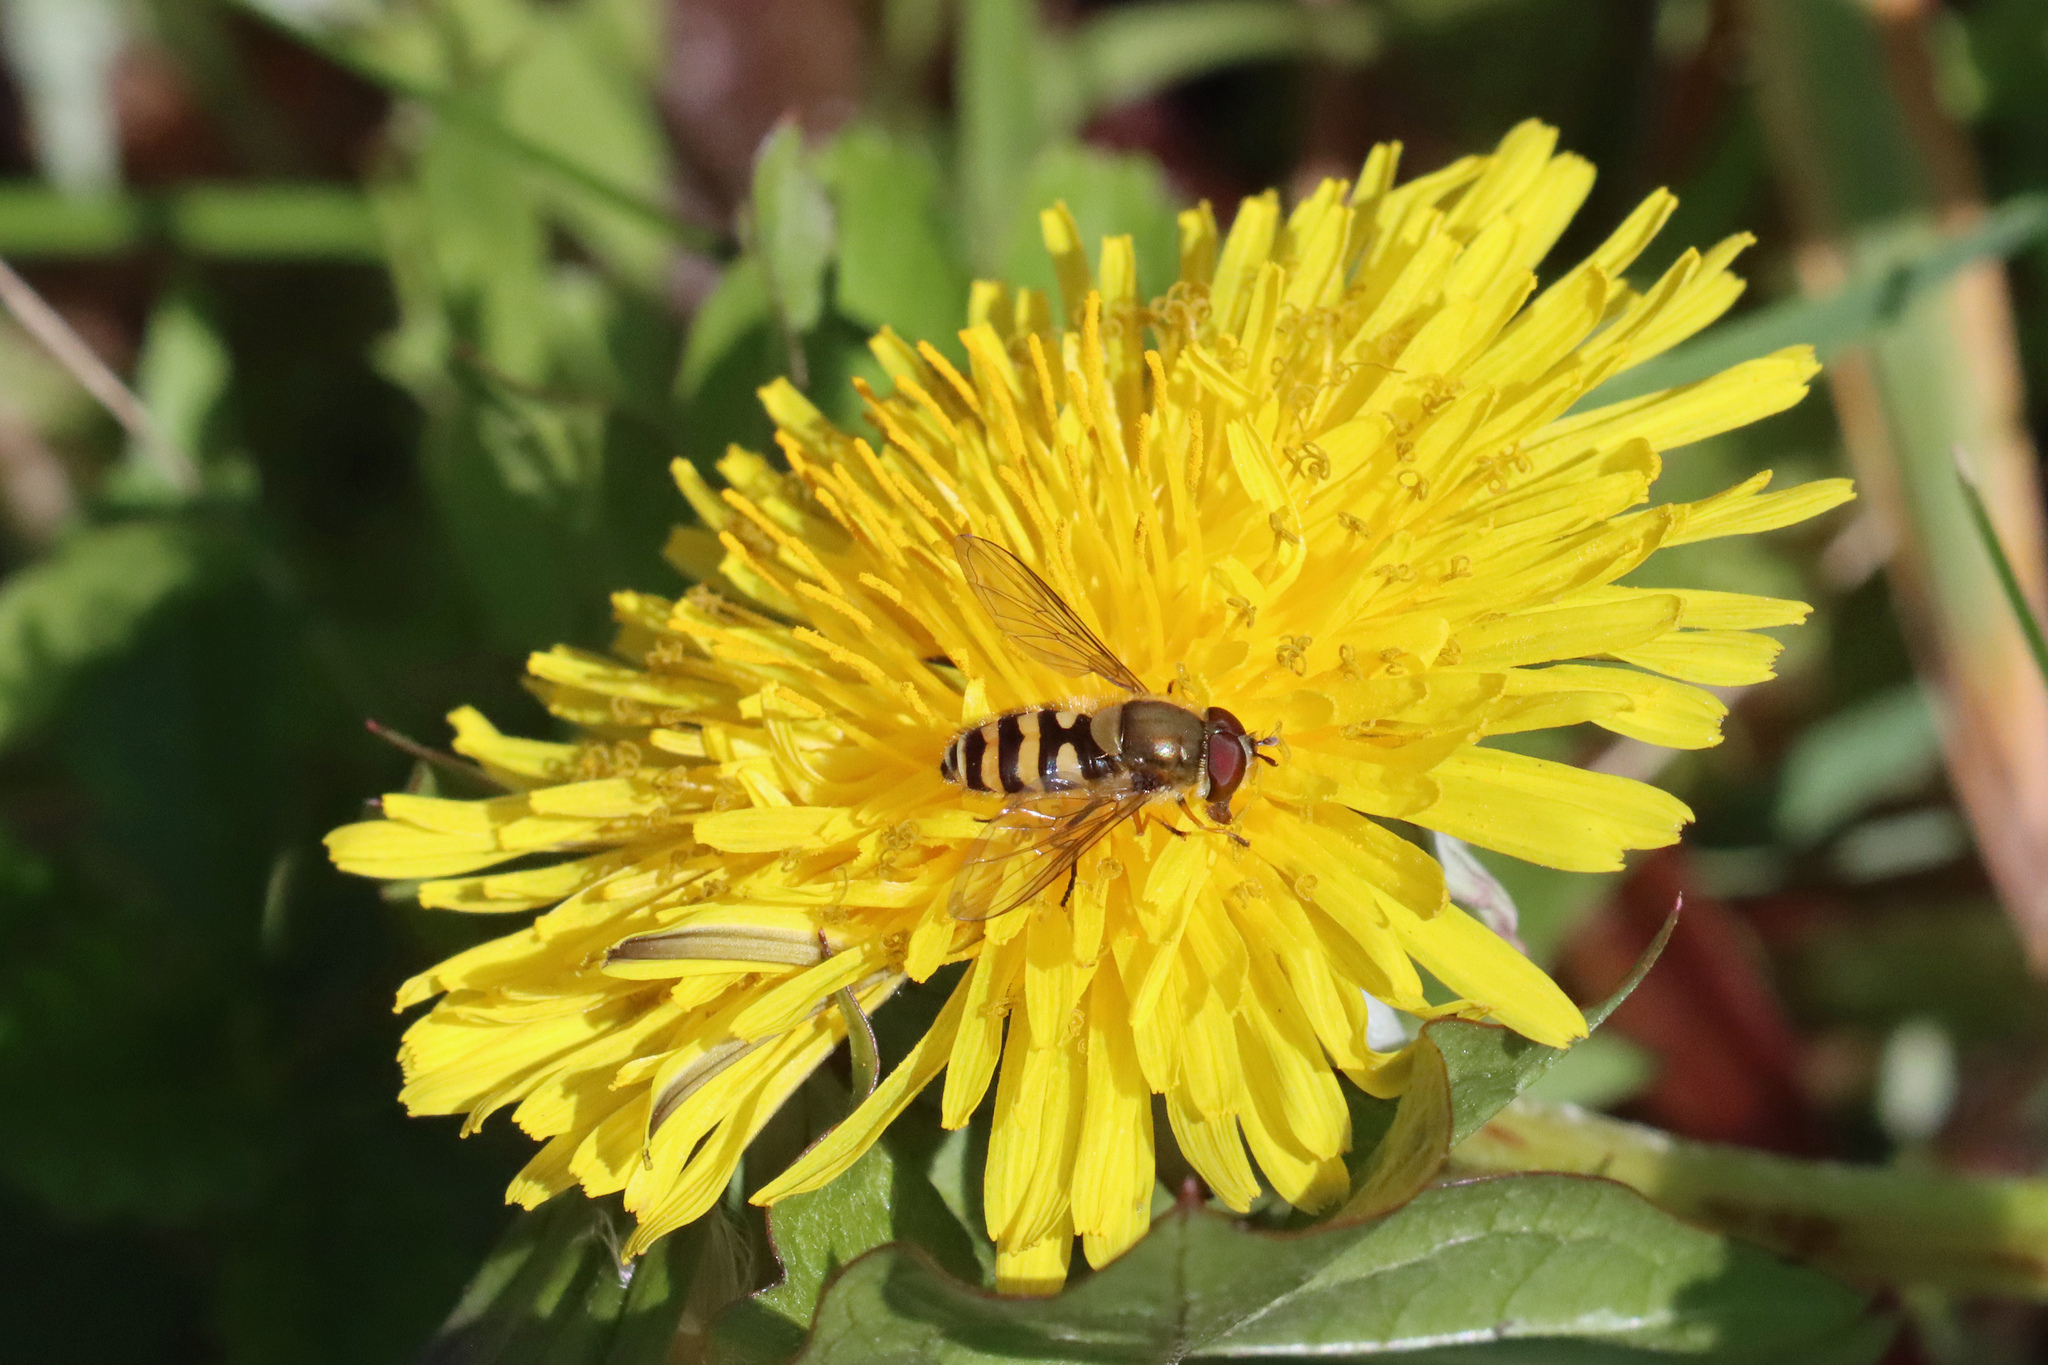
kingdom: Animalia
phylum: Arthropoda
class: Insecta
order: Diptera
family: Syrphidae
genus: Syrphus
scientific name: Syrphus
